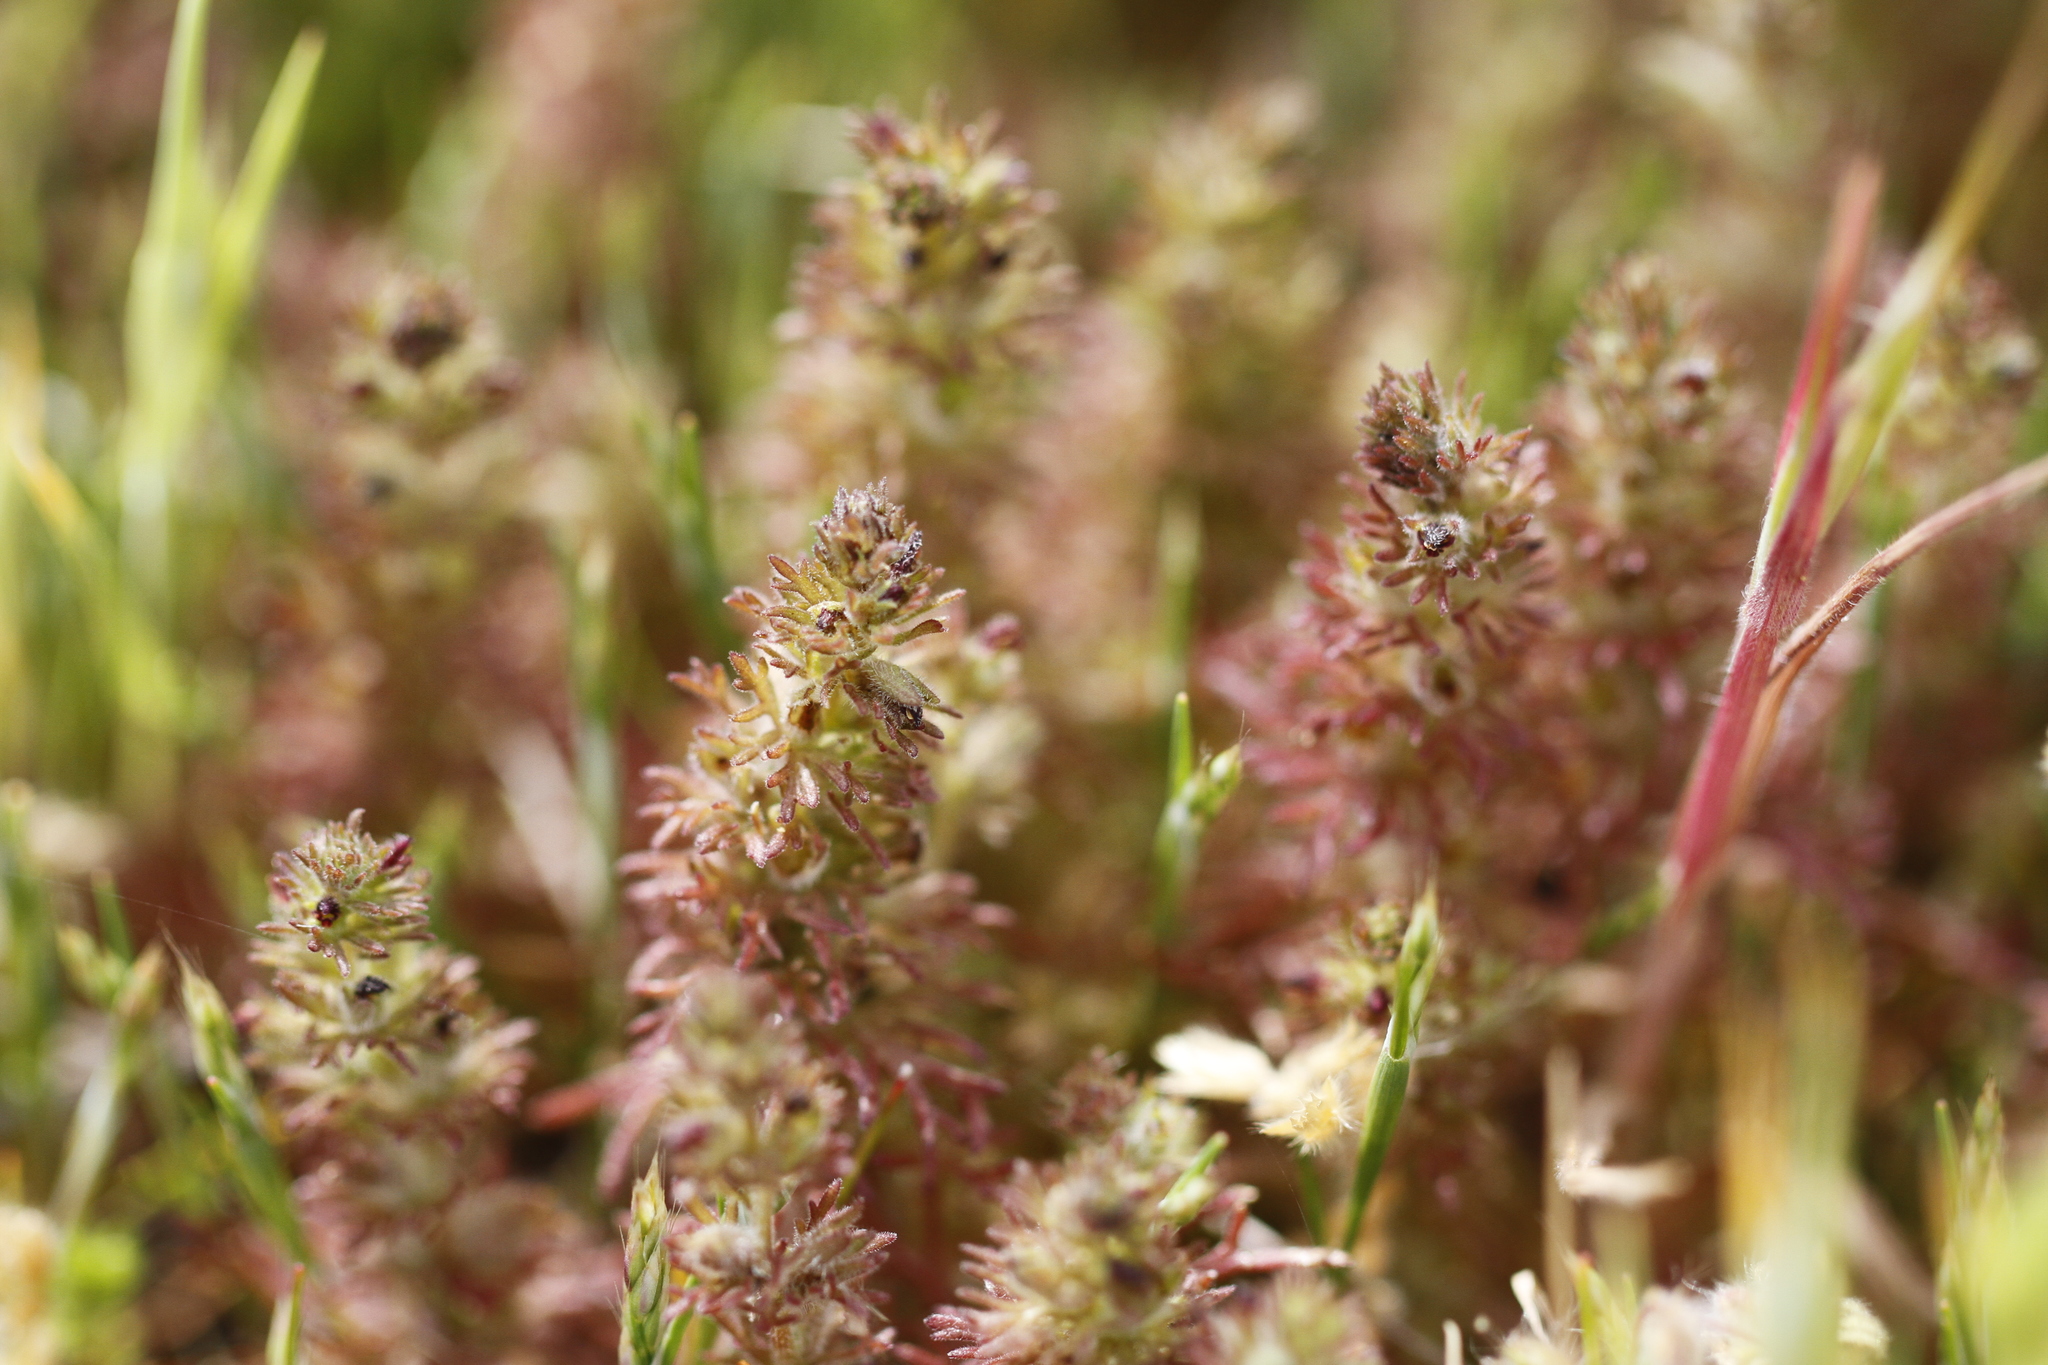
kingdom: Plantae
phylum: Tracheophyta
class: Magnoliopsida
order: Lamiales
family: Orobanchaceae
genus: Triphysaria
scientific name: Triphysaria pusilla
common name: Dwarf false owl-clover
